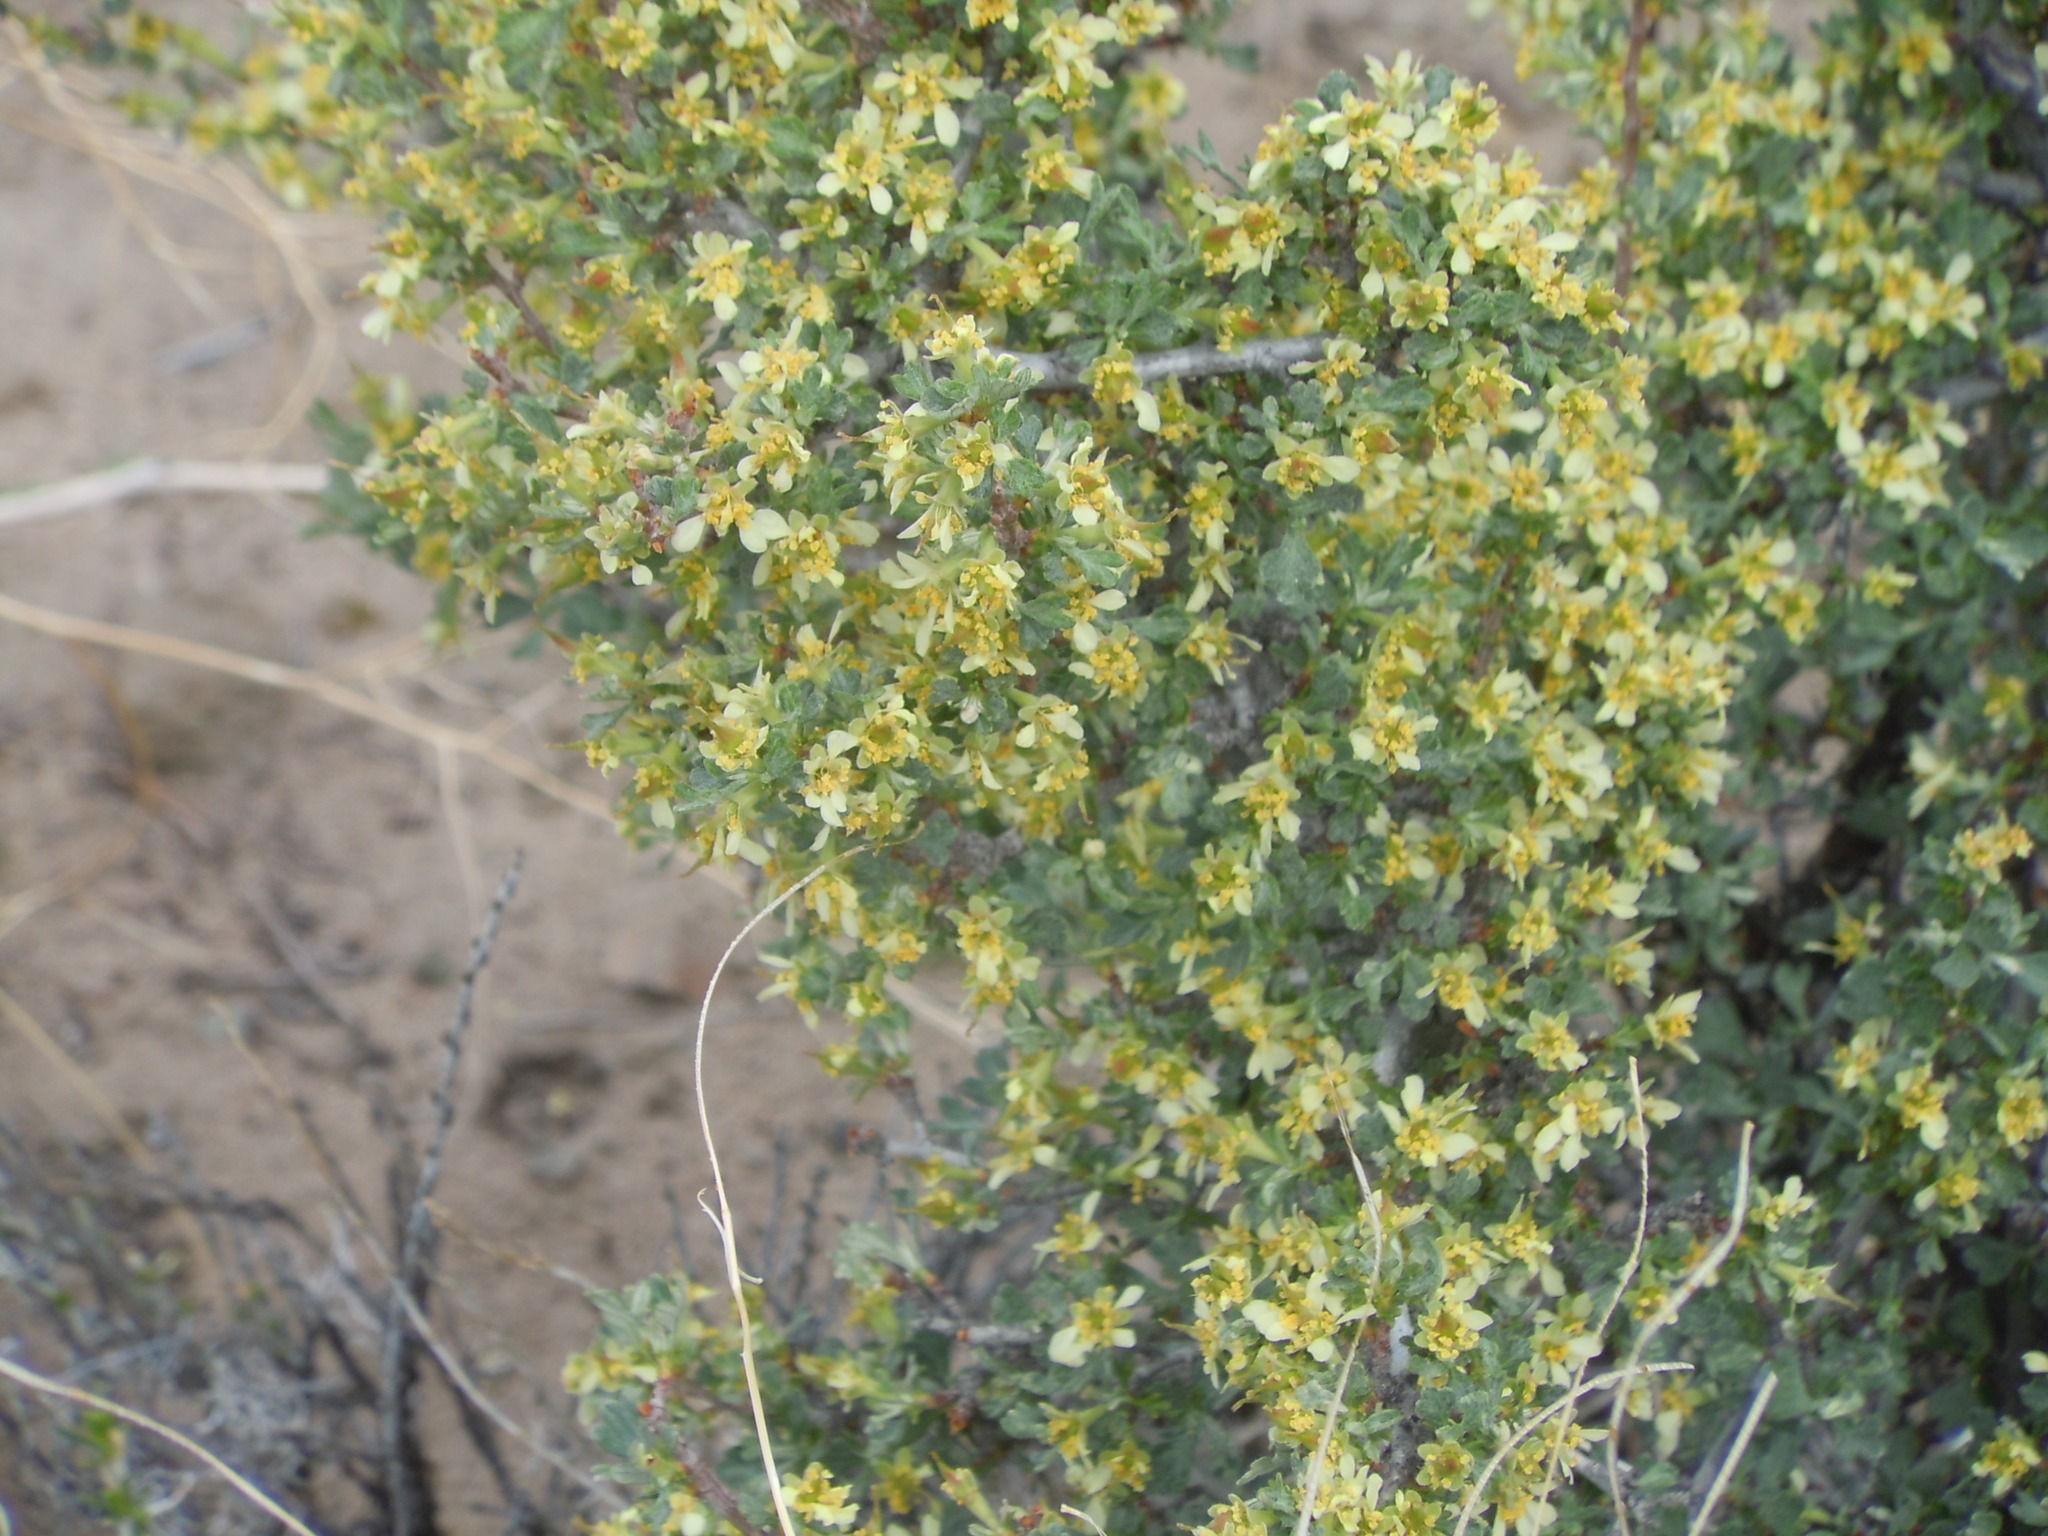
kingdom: Plantae
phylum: Tracheophyta
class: Magnoliopsida
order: Rosales
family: Rosaceae
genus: Purshia
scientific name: Purshia tridentata
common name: Antelope bitterbrush
